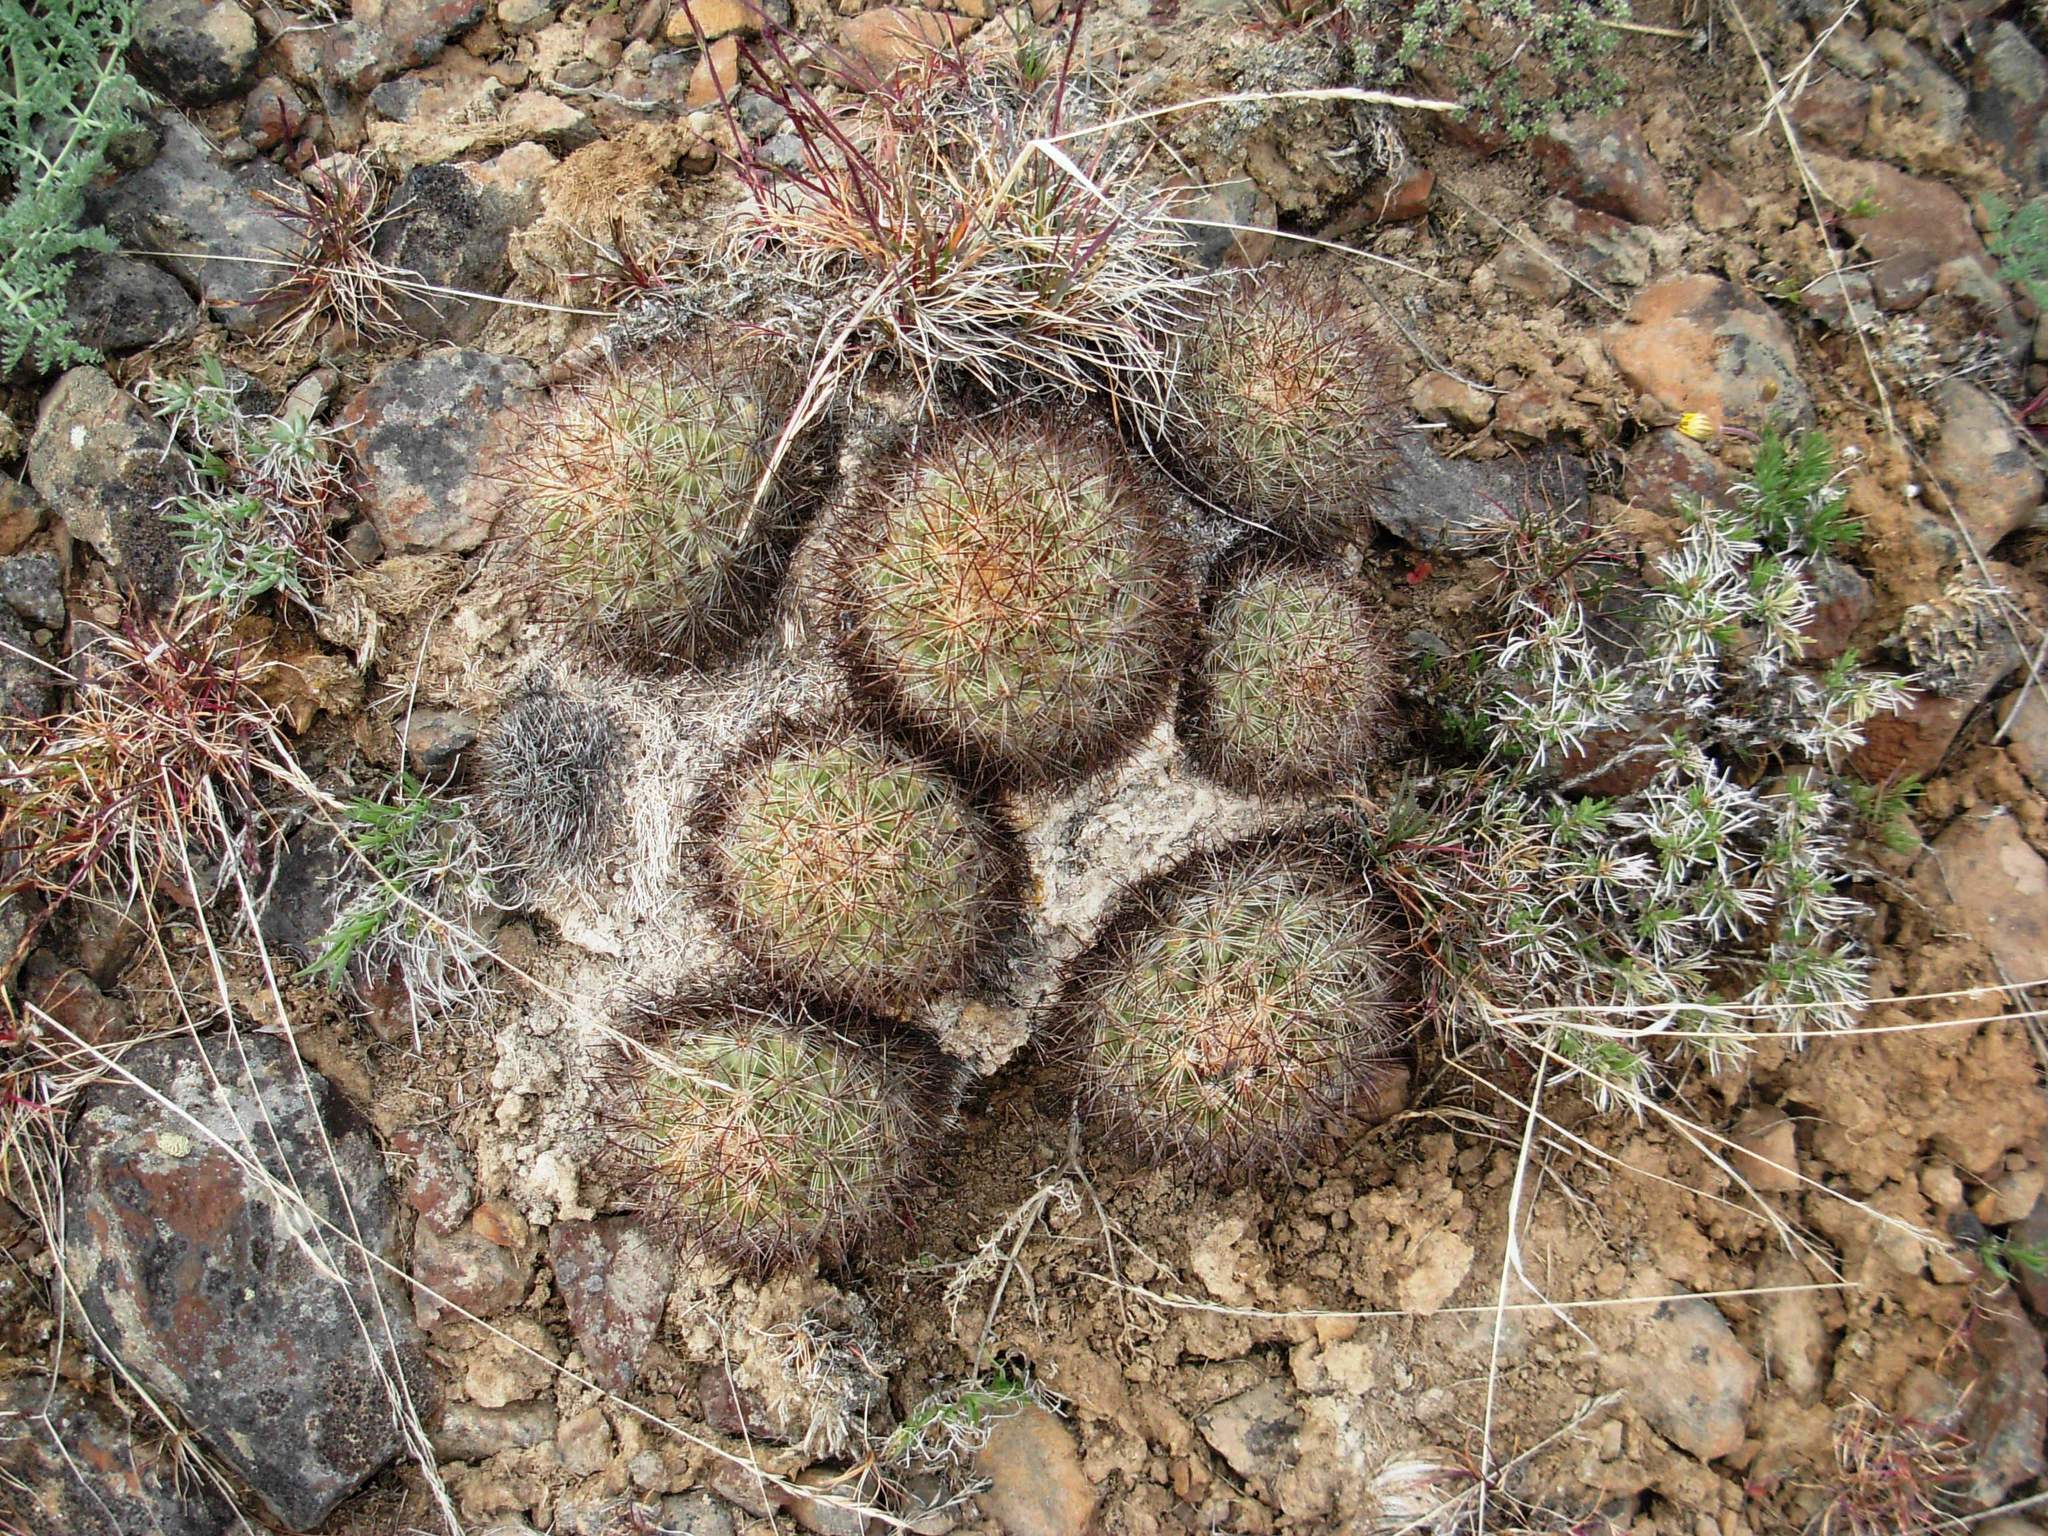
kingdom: Plantae
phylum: Tracheophyta
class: Magnoliopsida
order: Caryophyllales
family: Cactaceae
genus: Pediocactus
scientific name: Pediocactus nigrispinus
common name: Simpson's hedgehog cactus
